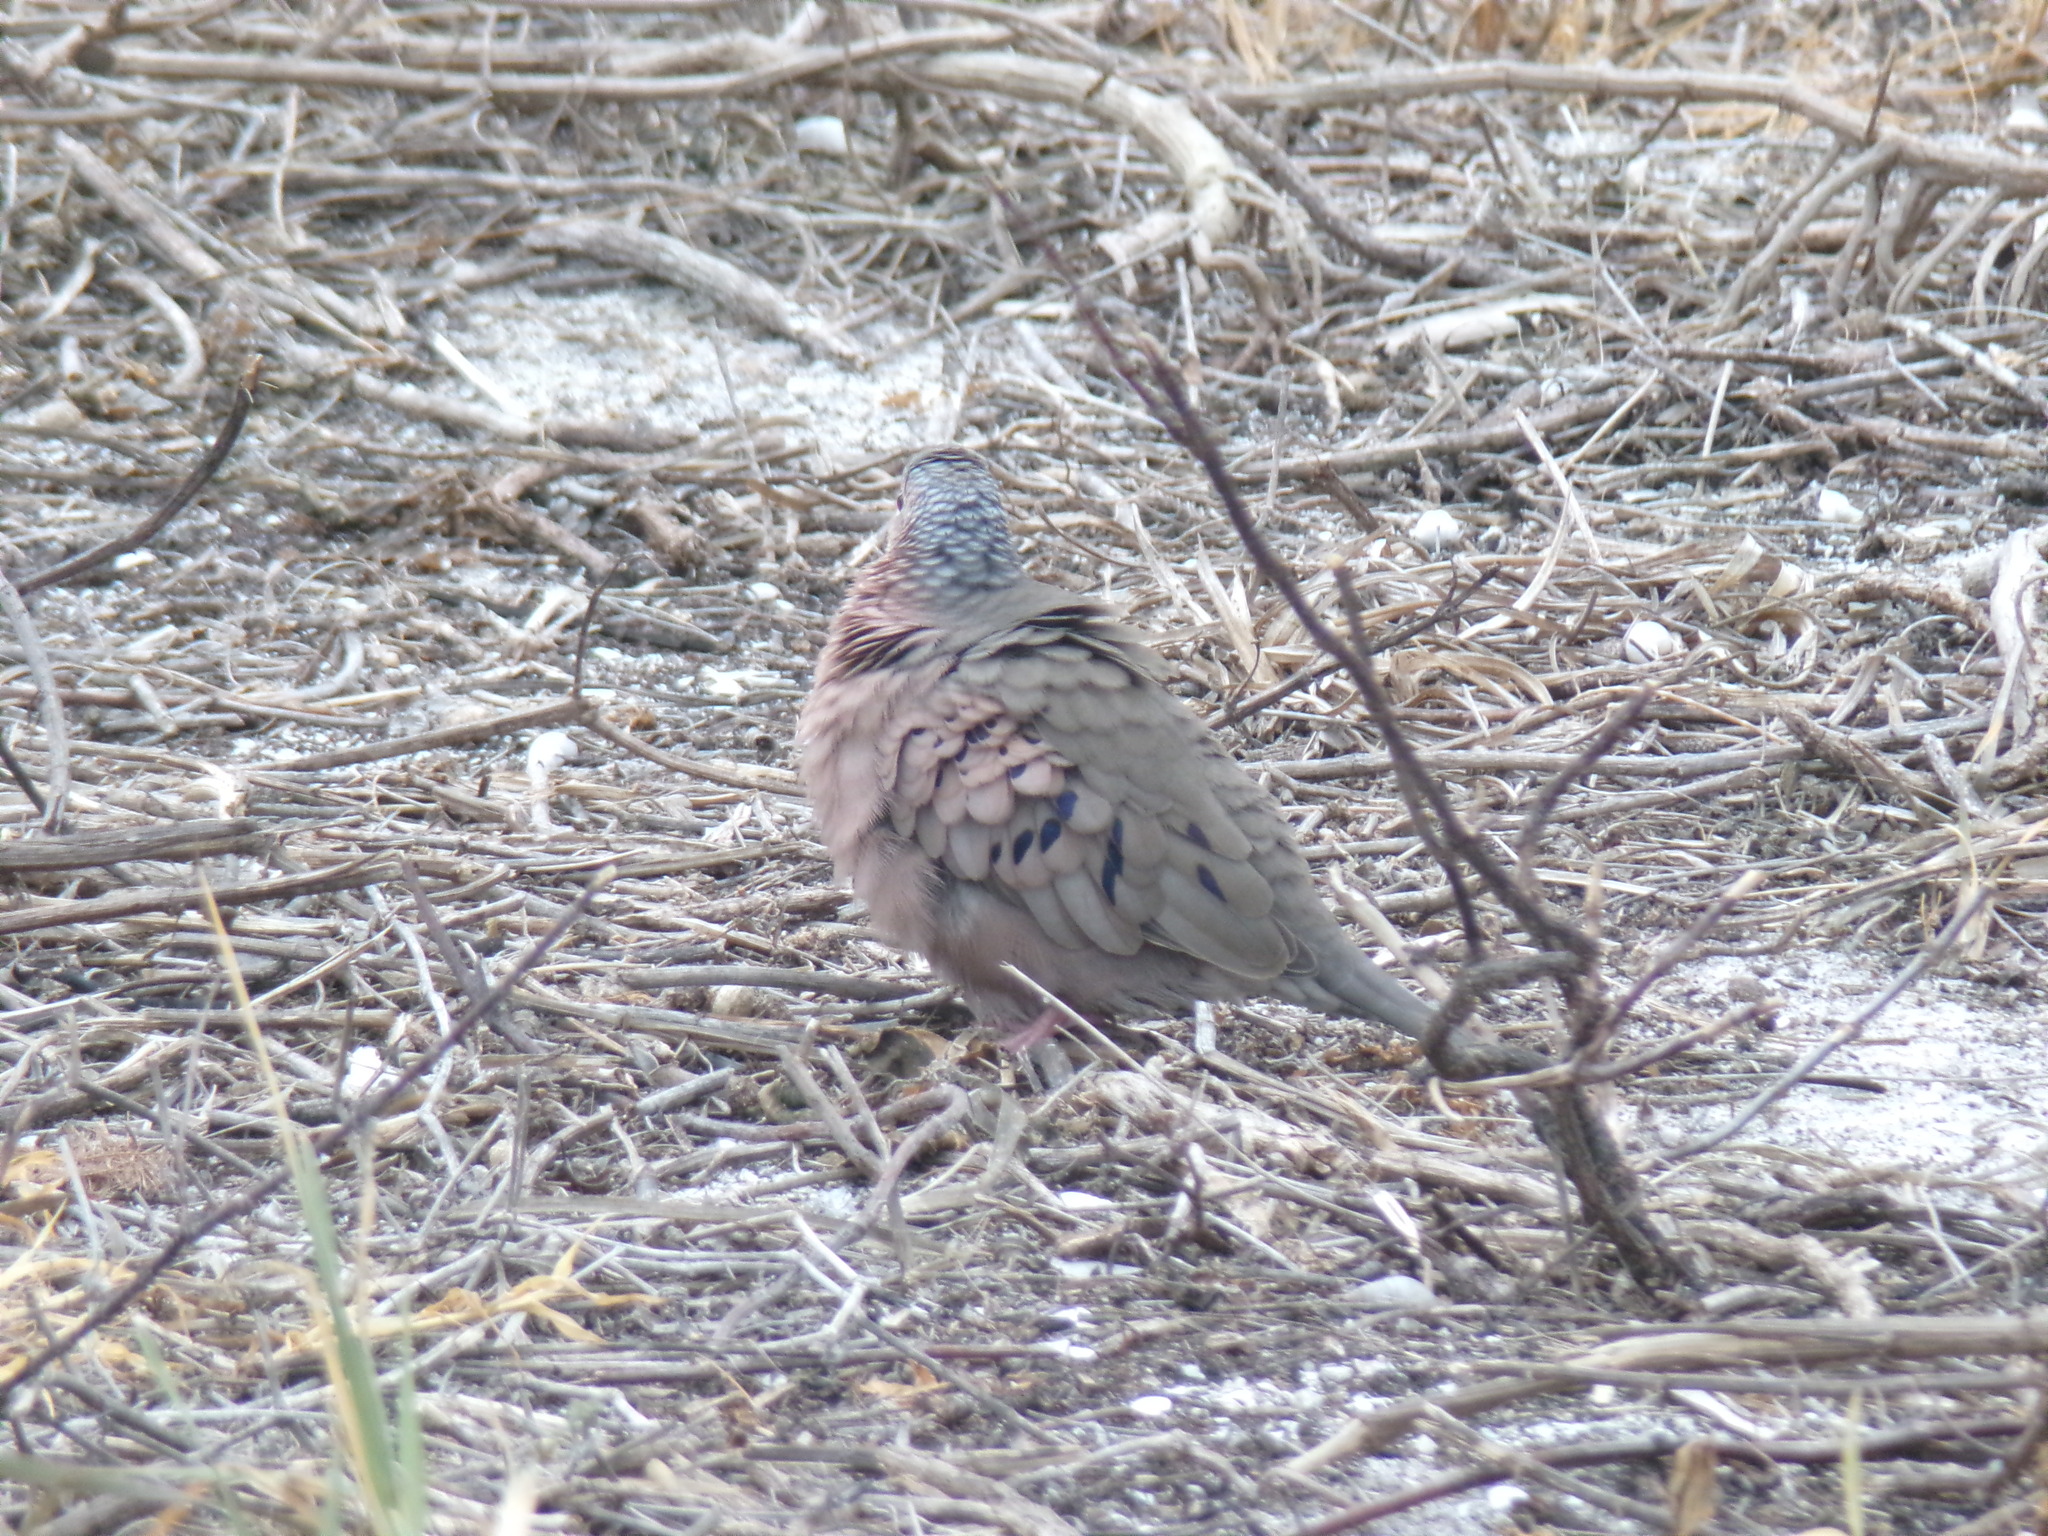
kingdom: Animalia
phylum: Chordata
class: Aves
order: Columbiformes
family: Columbidae
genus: Columbina
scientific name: Columbina passerina
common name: Common ground-dove
